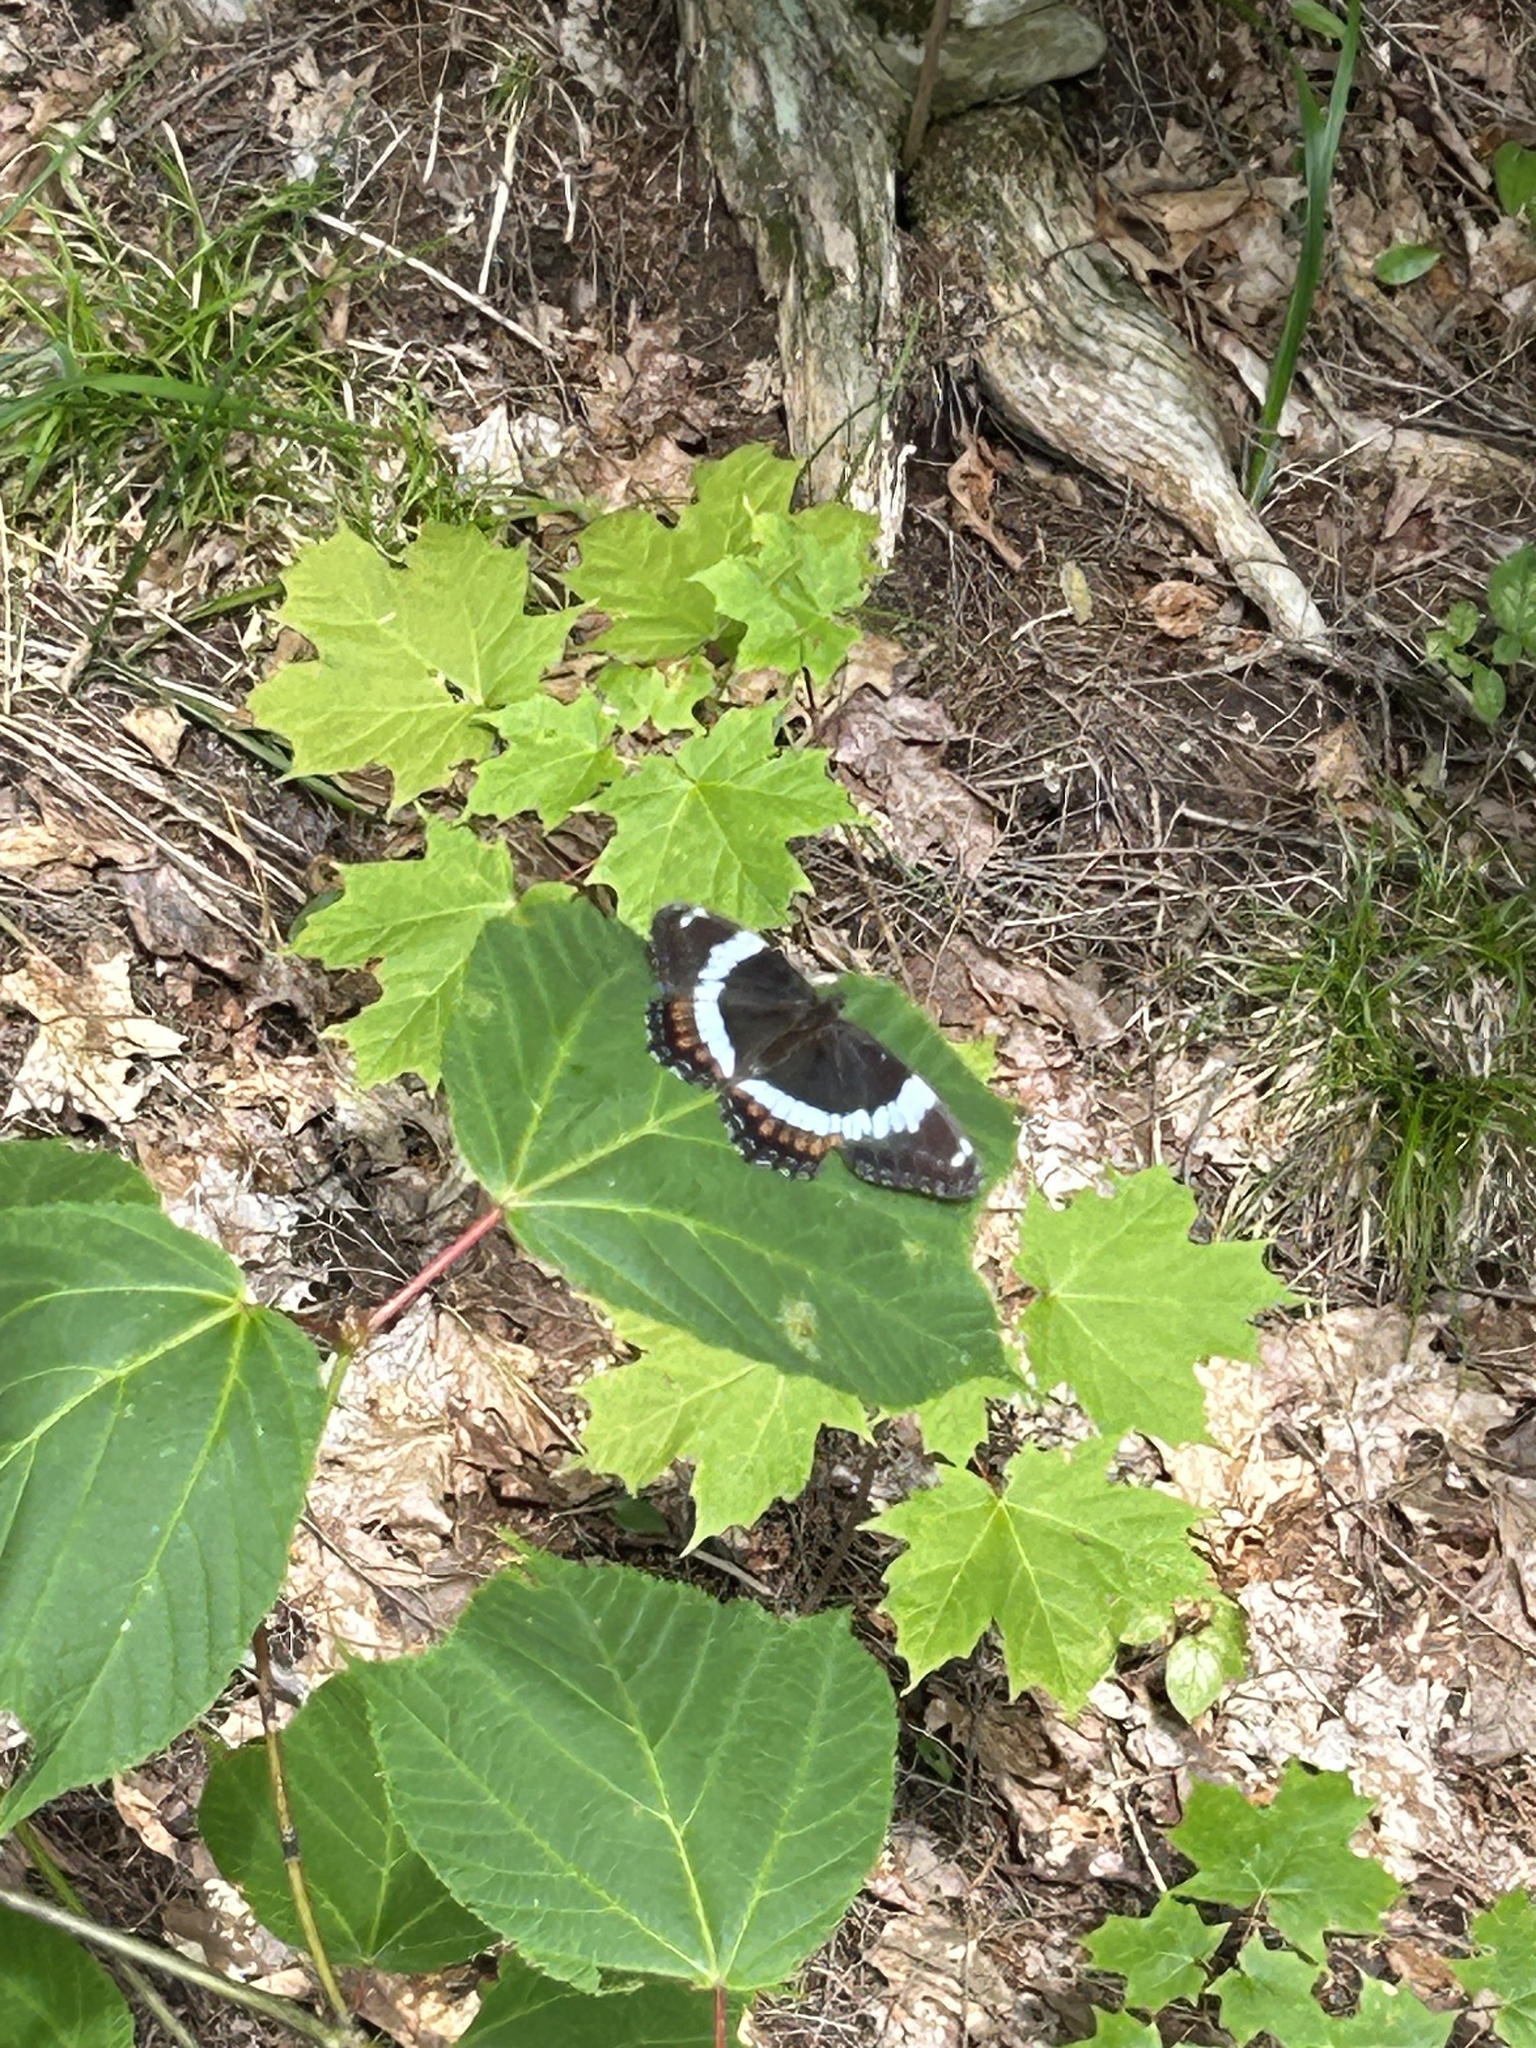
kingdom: Animalia
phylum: Arthropoda
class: Insecta
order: Lepidoptera
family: Nymphalidae
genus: Limenitis
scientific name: Limenitis arthemis
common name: Red-spotted admiral
